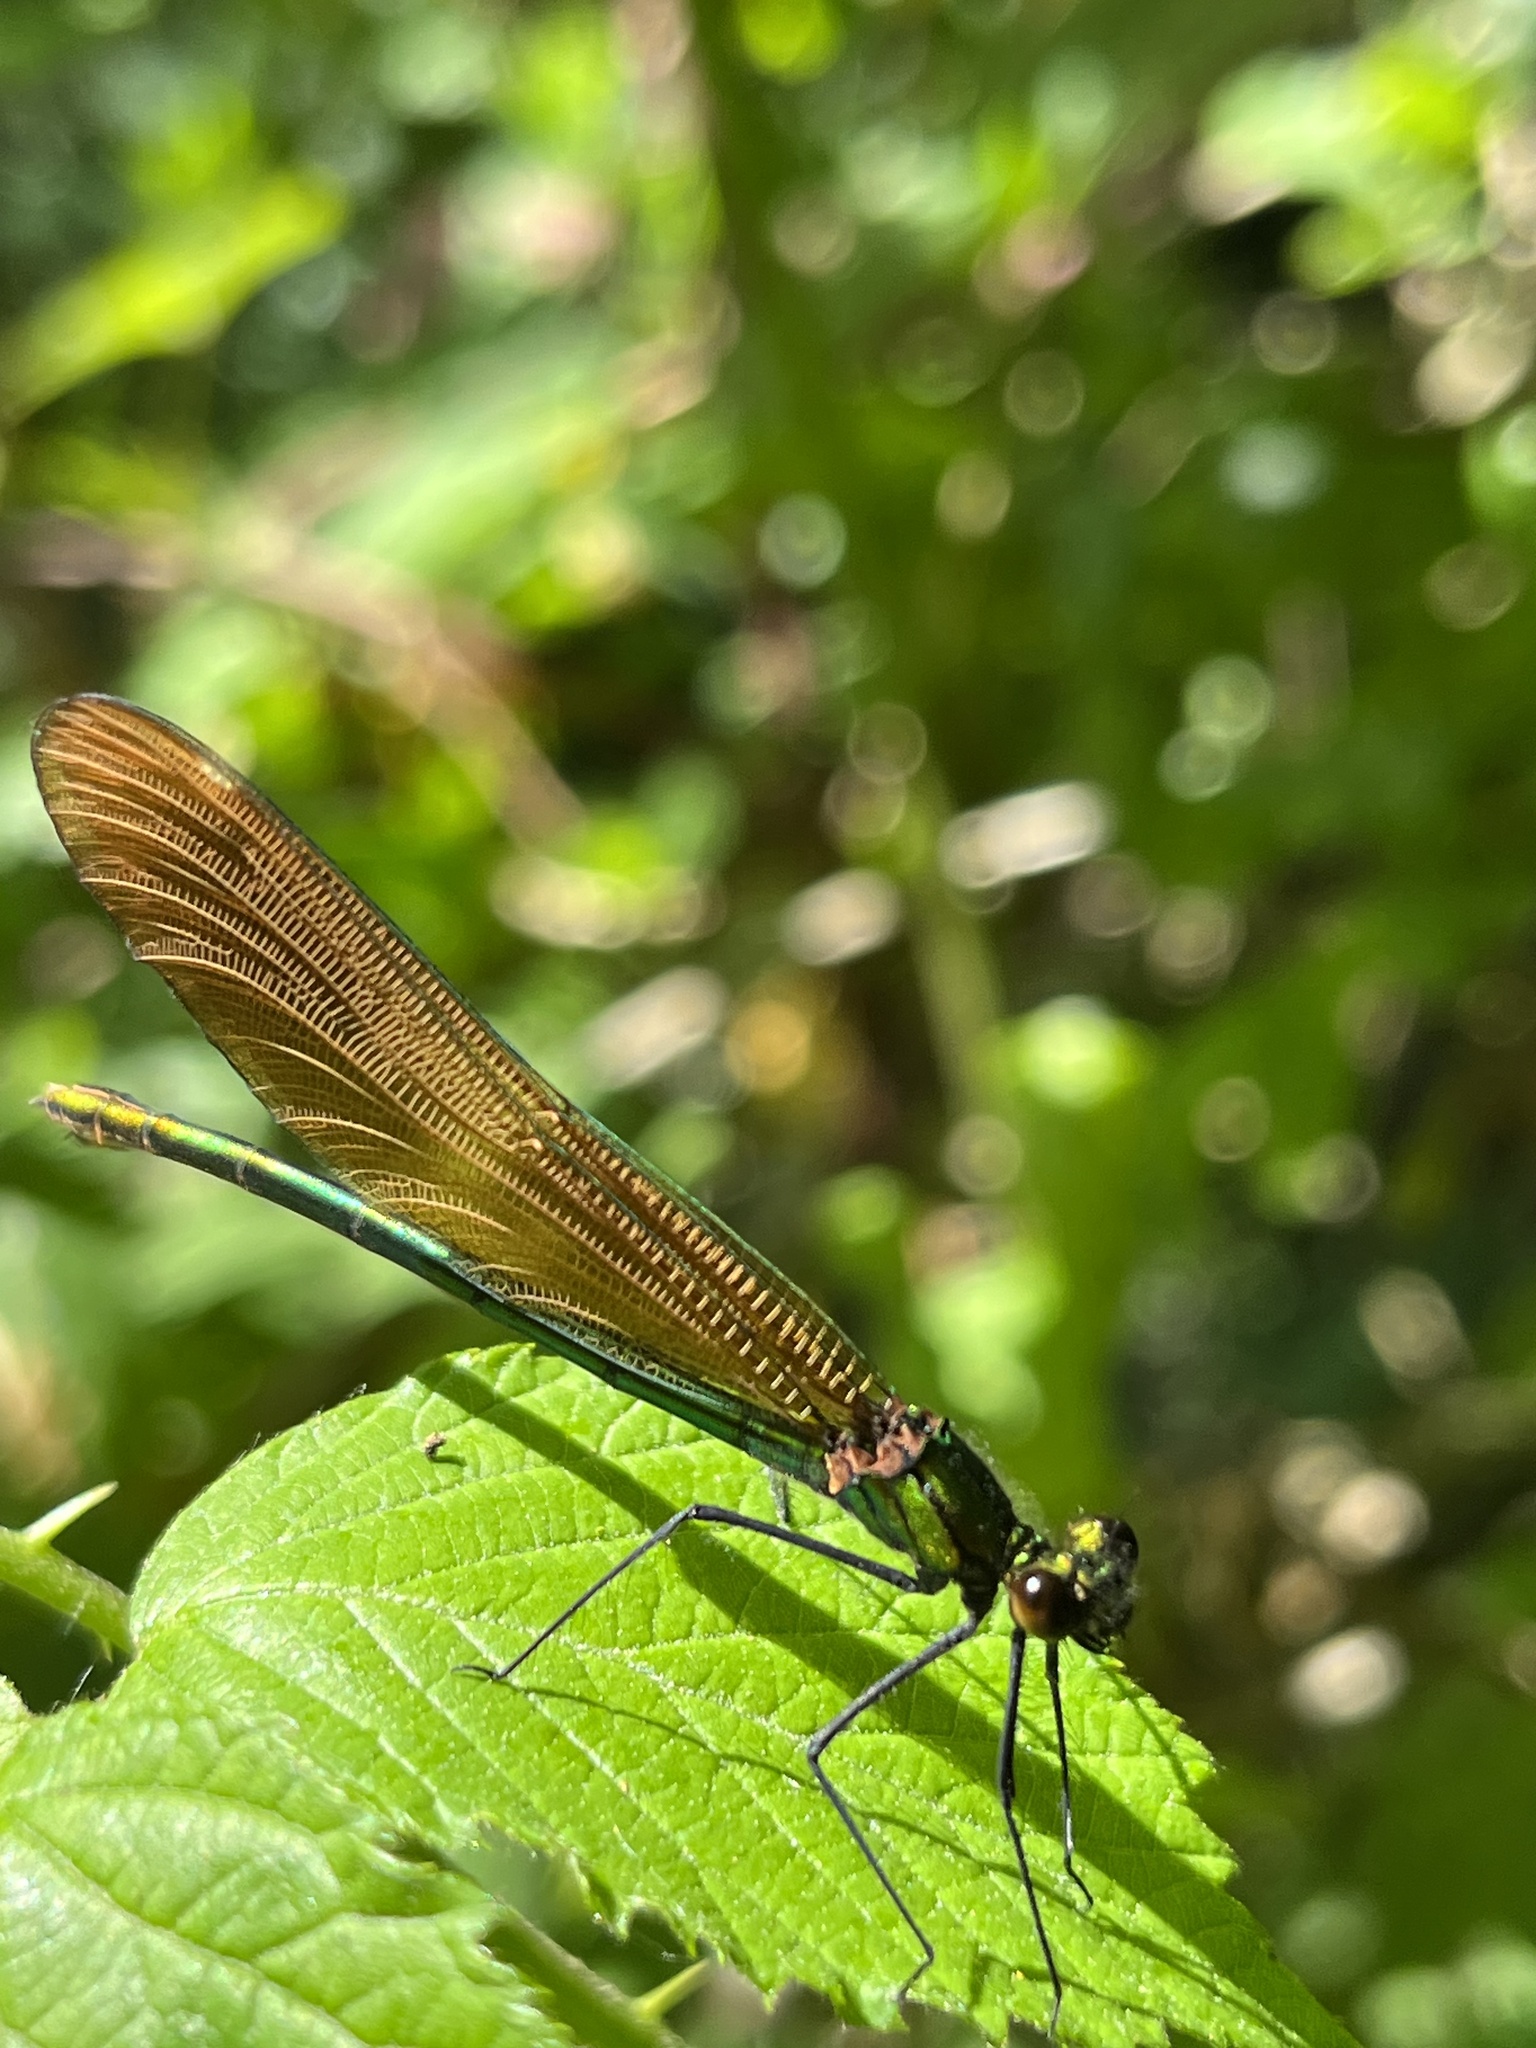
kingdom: Animalia
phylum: Arthropoda
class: Insecta
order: Odonata
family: Calopterygidae
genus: Calopteryx
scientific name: Calopteryx virgo
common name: Beautiful demoiselle
